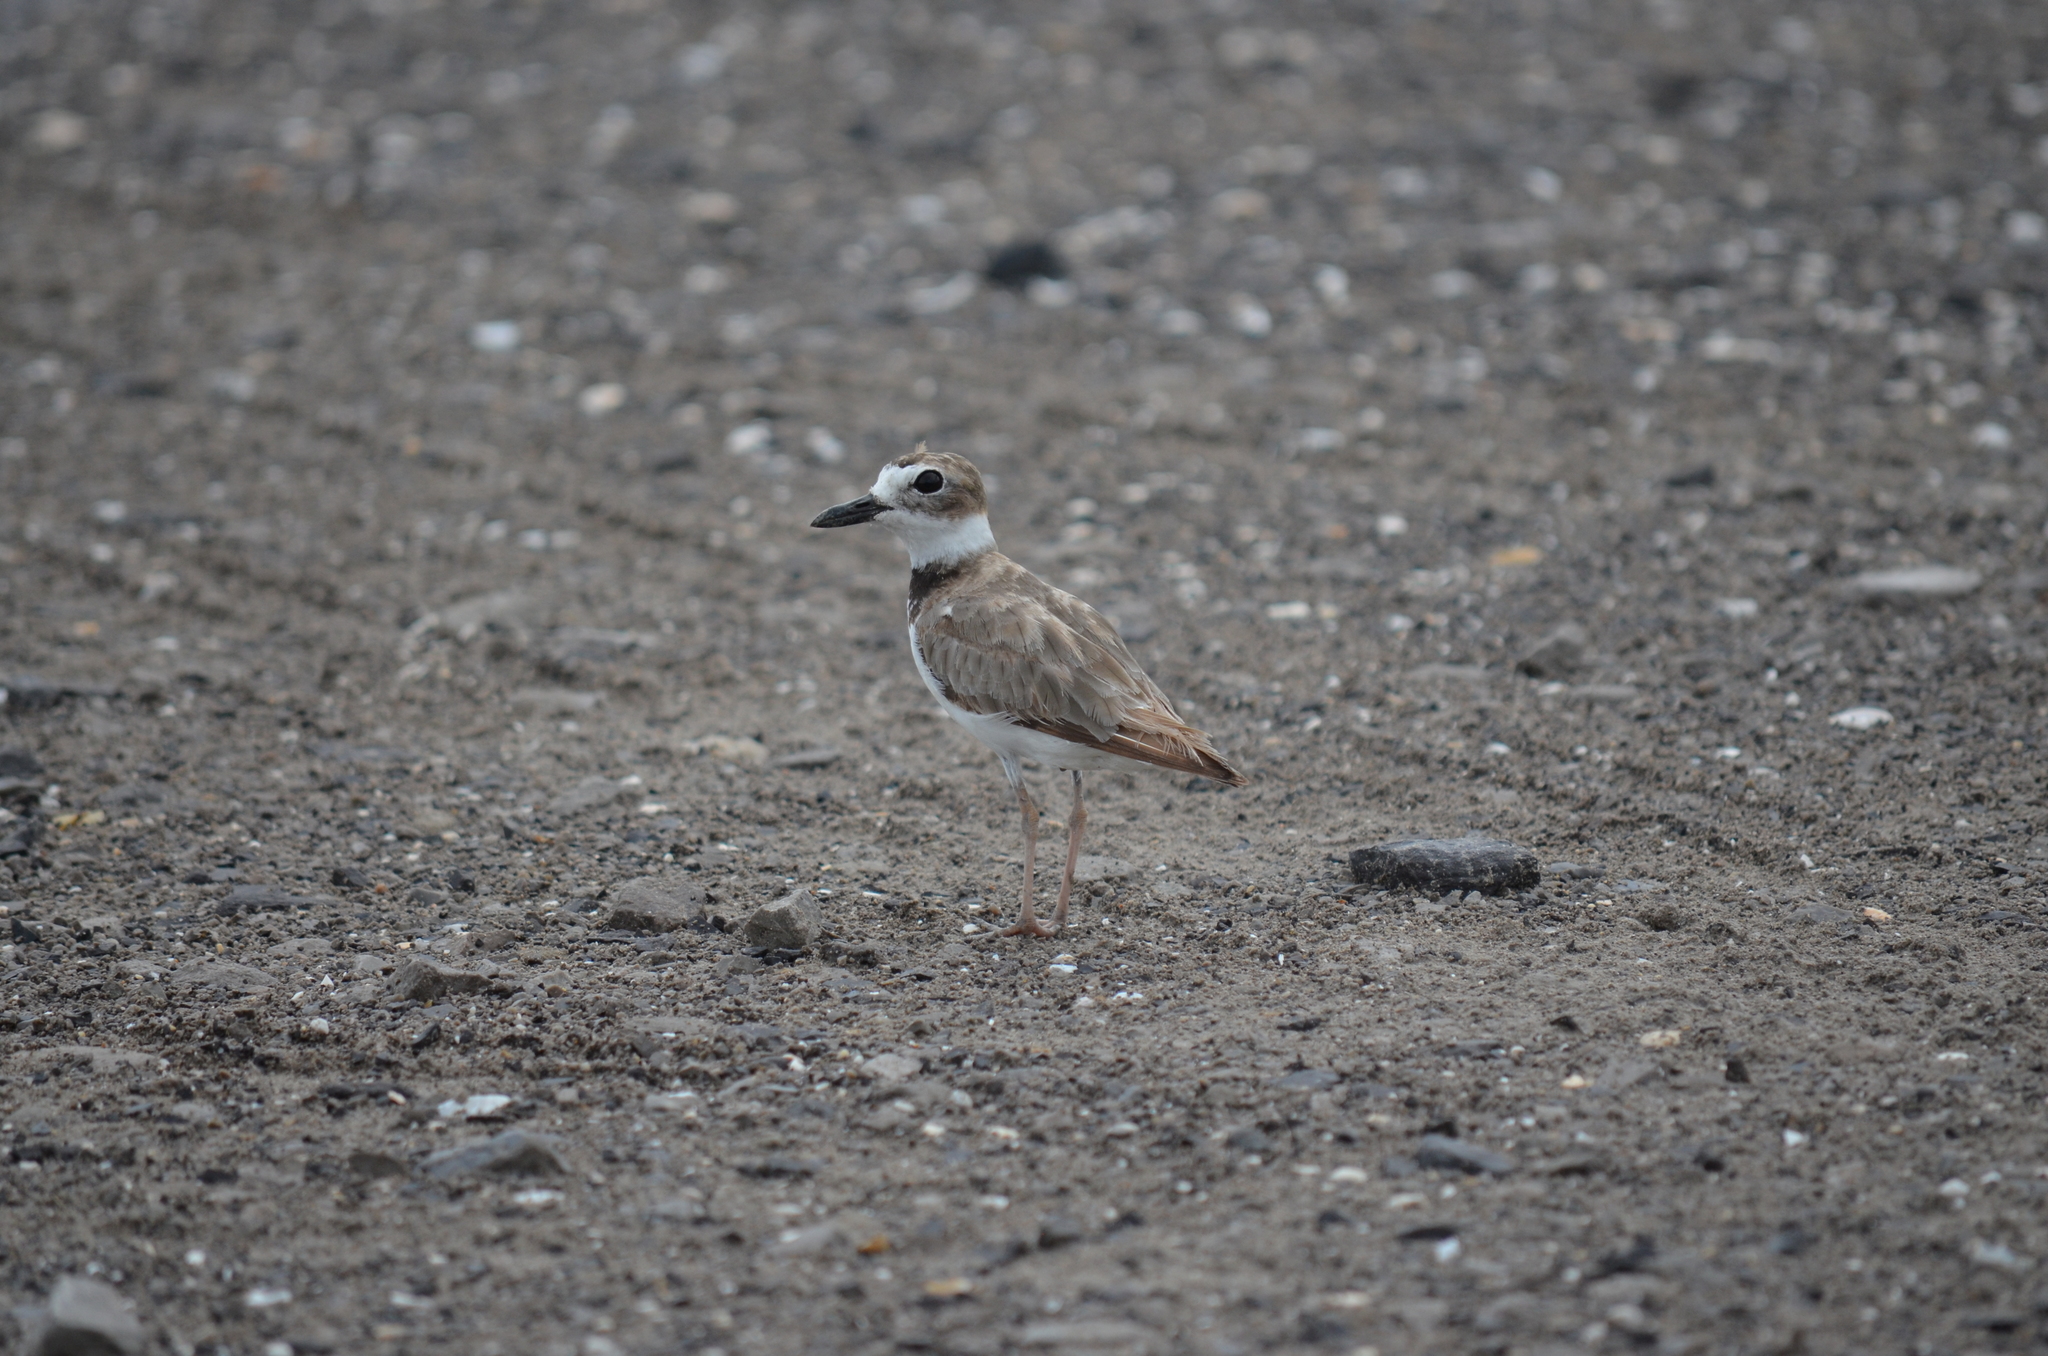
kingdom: Animalia
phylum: Chordata
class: Aves
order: Charadriiformes
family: Charadriidae
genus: Anarhynchus
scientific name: Anarhynchus
